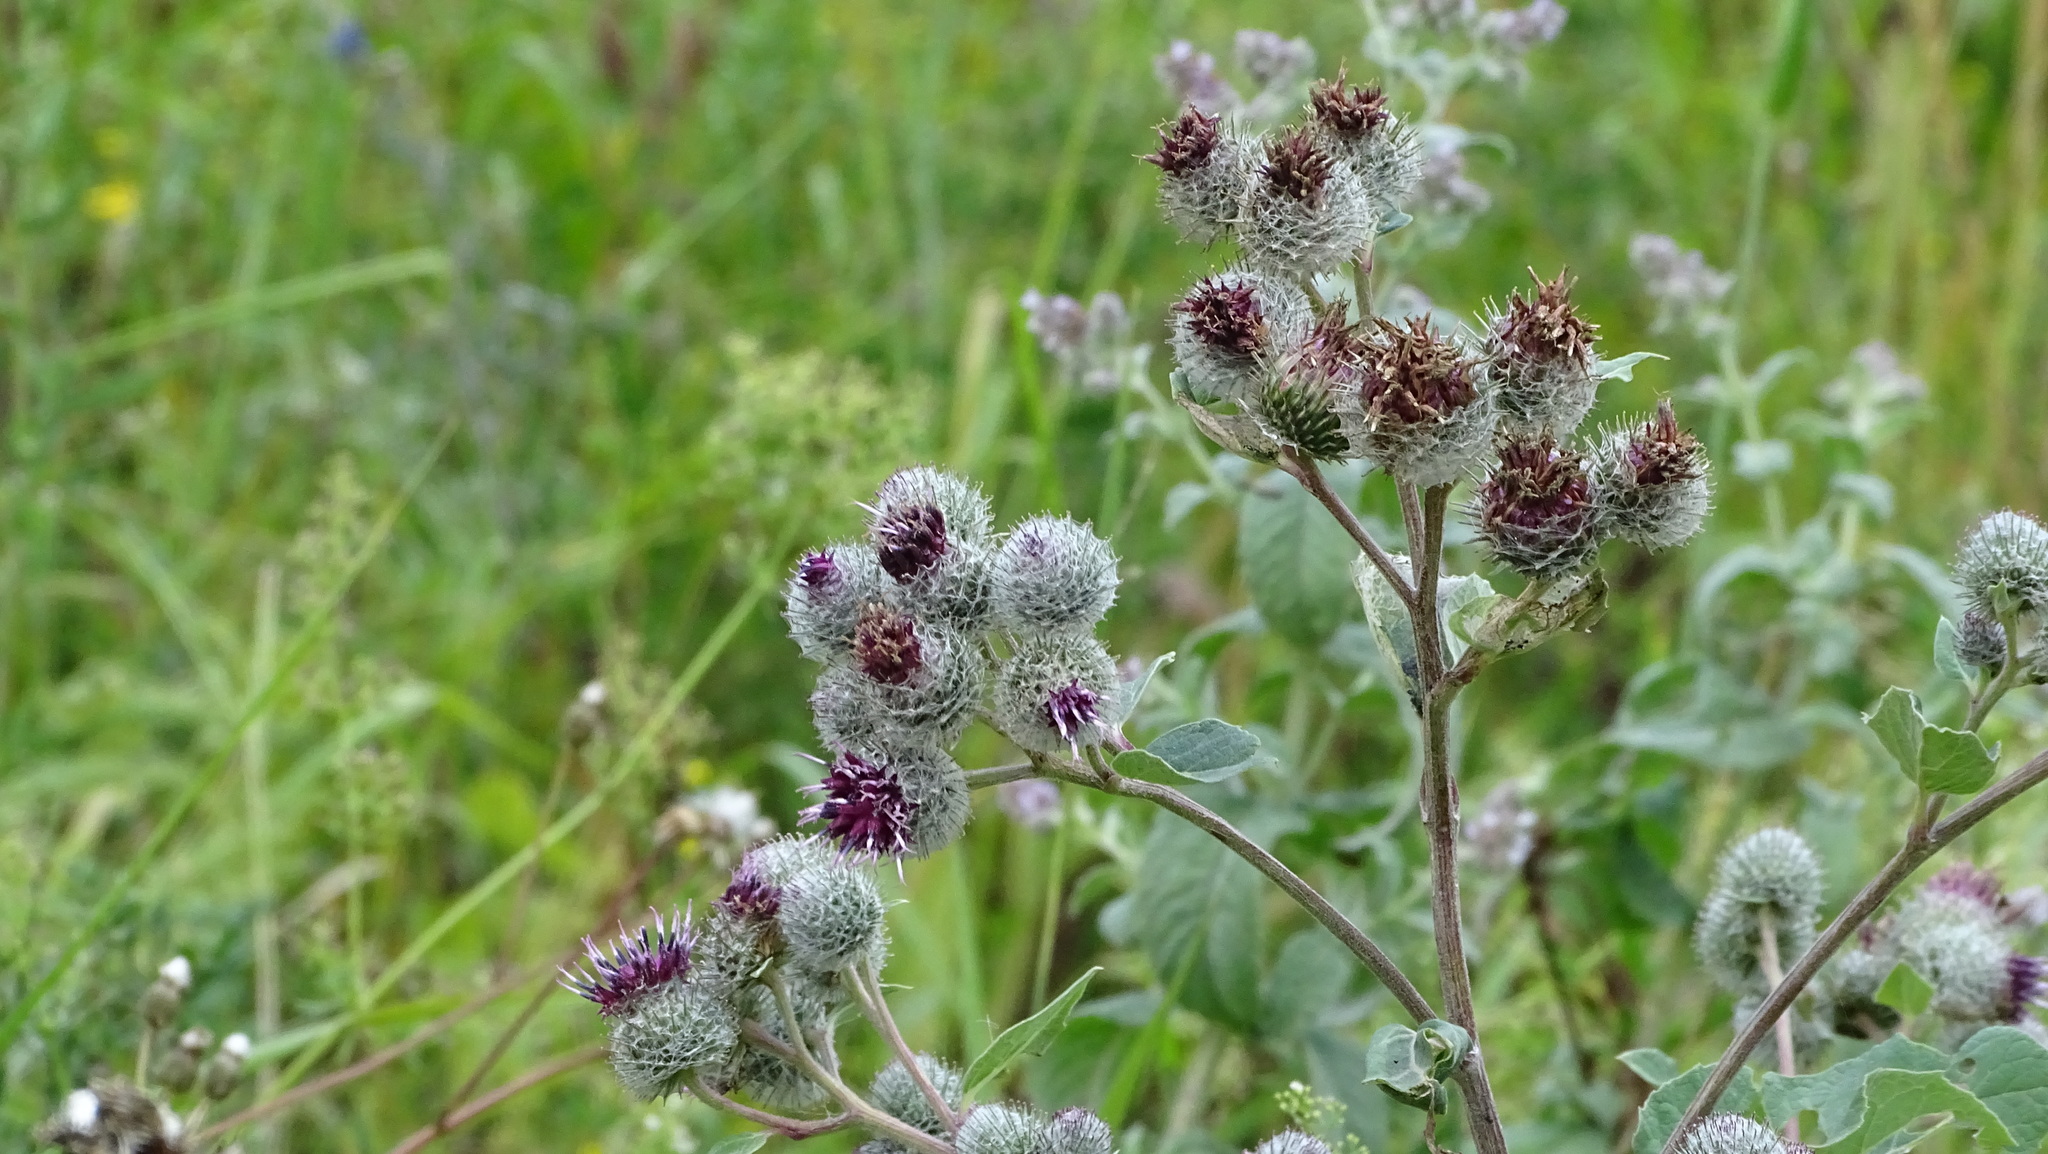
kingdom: Plantae
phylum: Tracheophyta
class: Magnoliopsida
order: Asterales
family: Asteraceae
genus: Arctium
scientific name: Arctium tomentosum
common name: Woolly burdock
